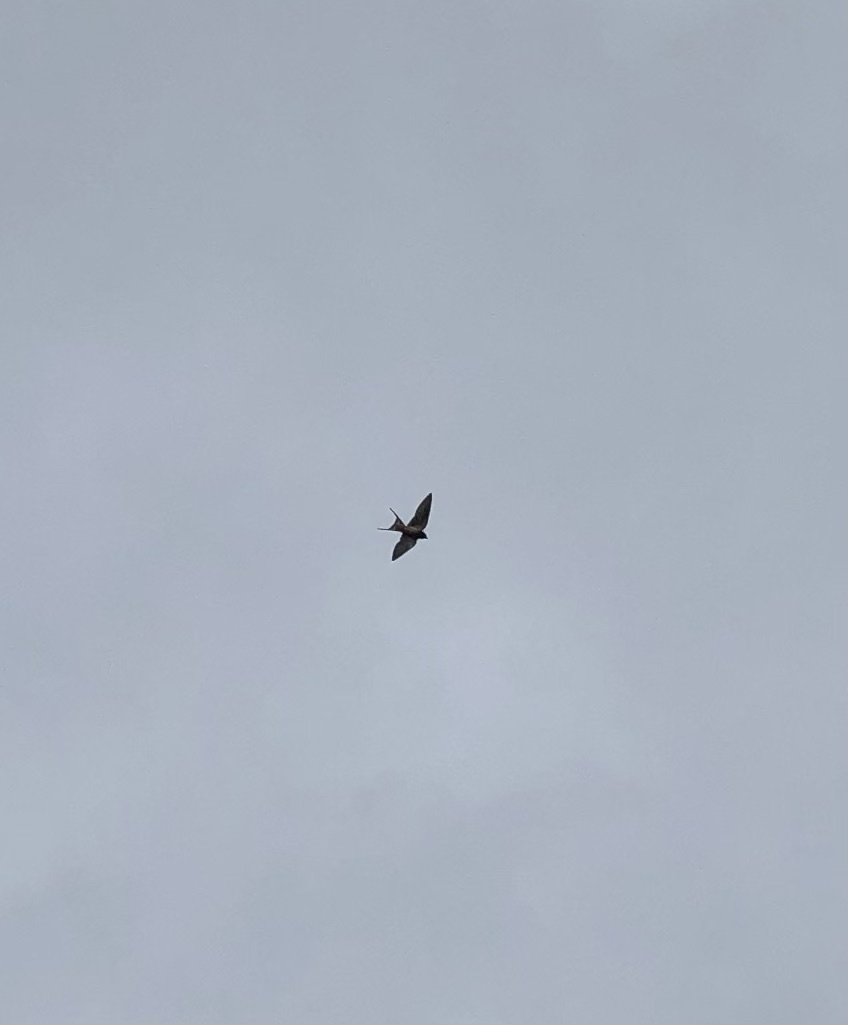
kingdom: Animalia
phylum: Chordata
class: Aves
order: Passeriformes
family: Hirundinidae
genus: Hirundo
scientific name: Hirundo rustica
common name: Barn swallow
